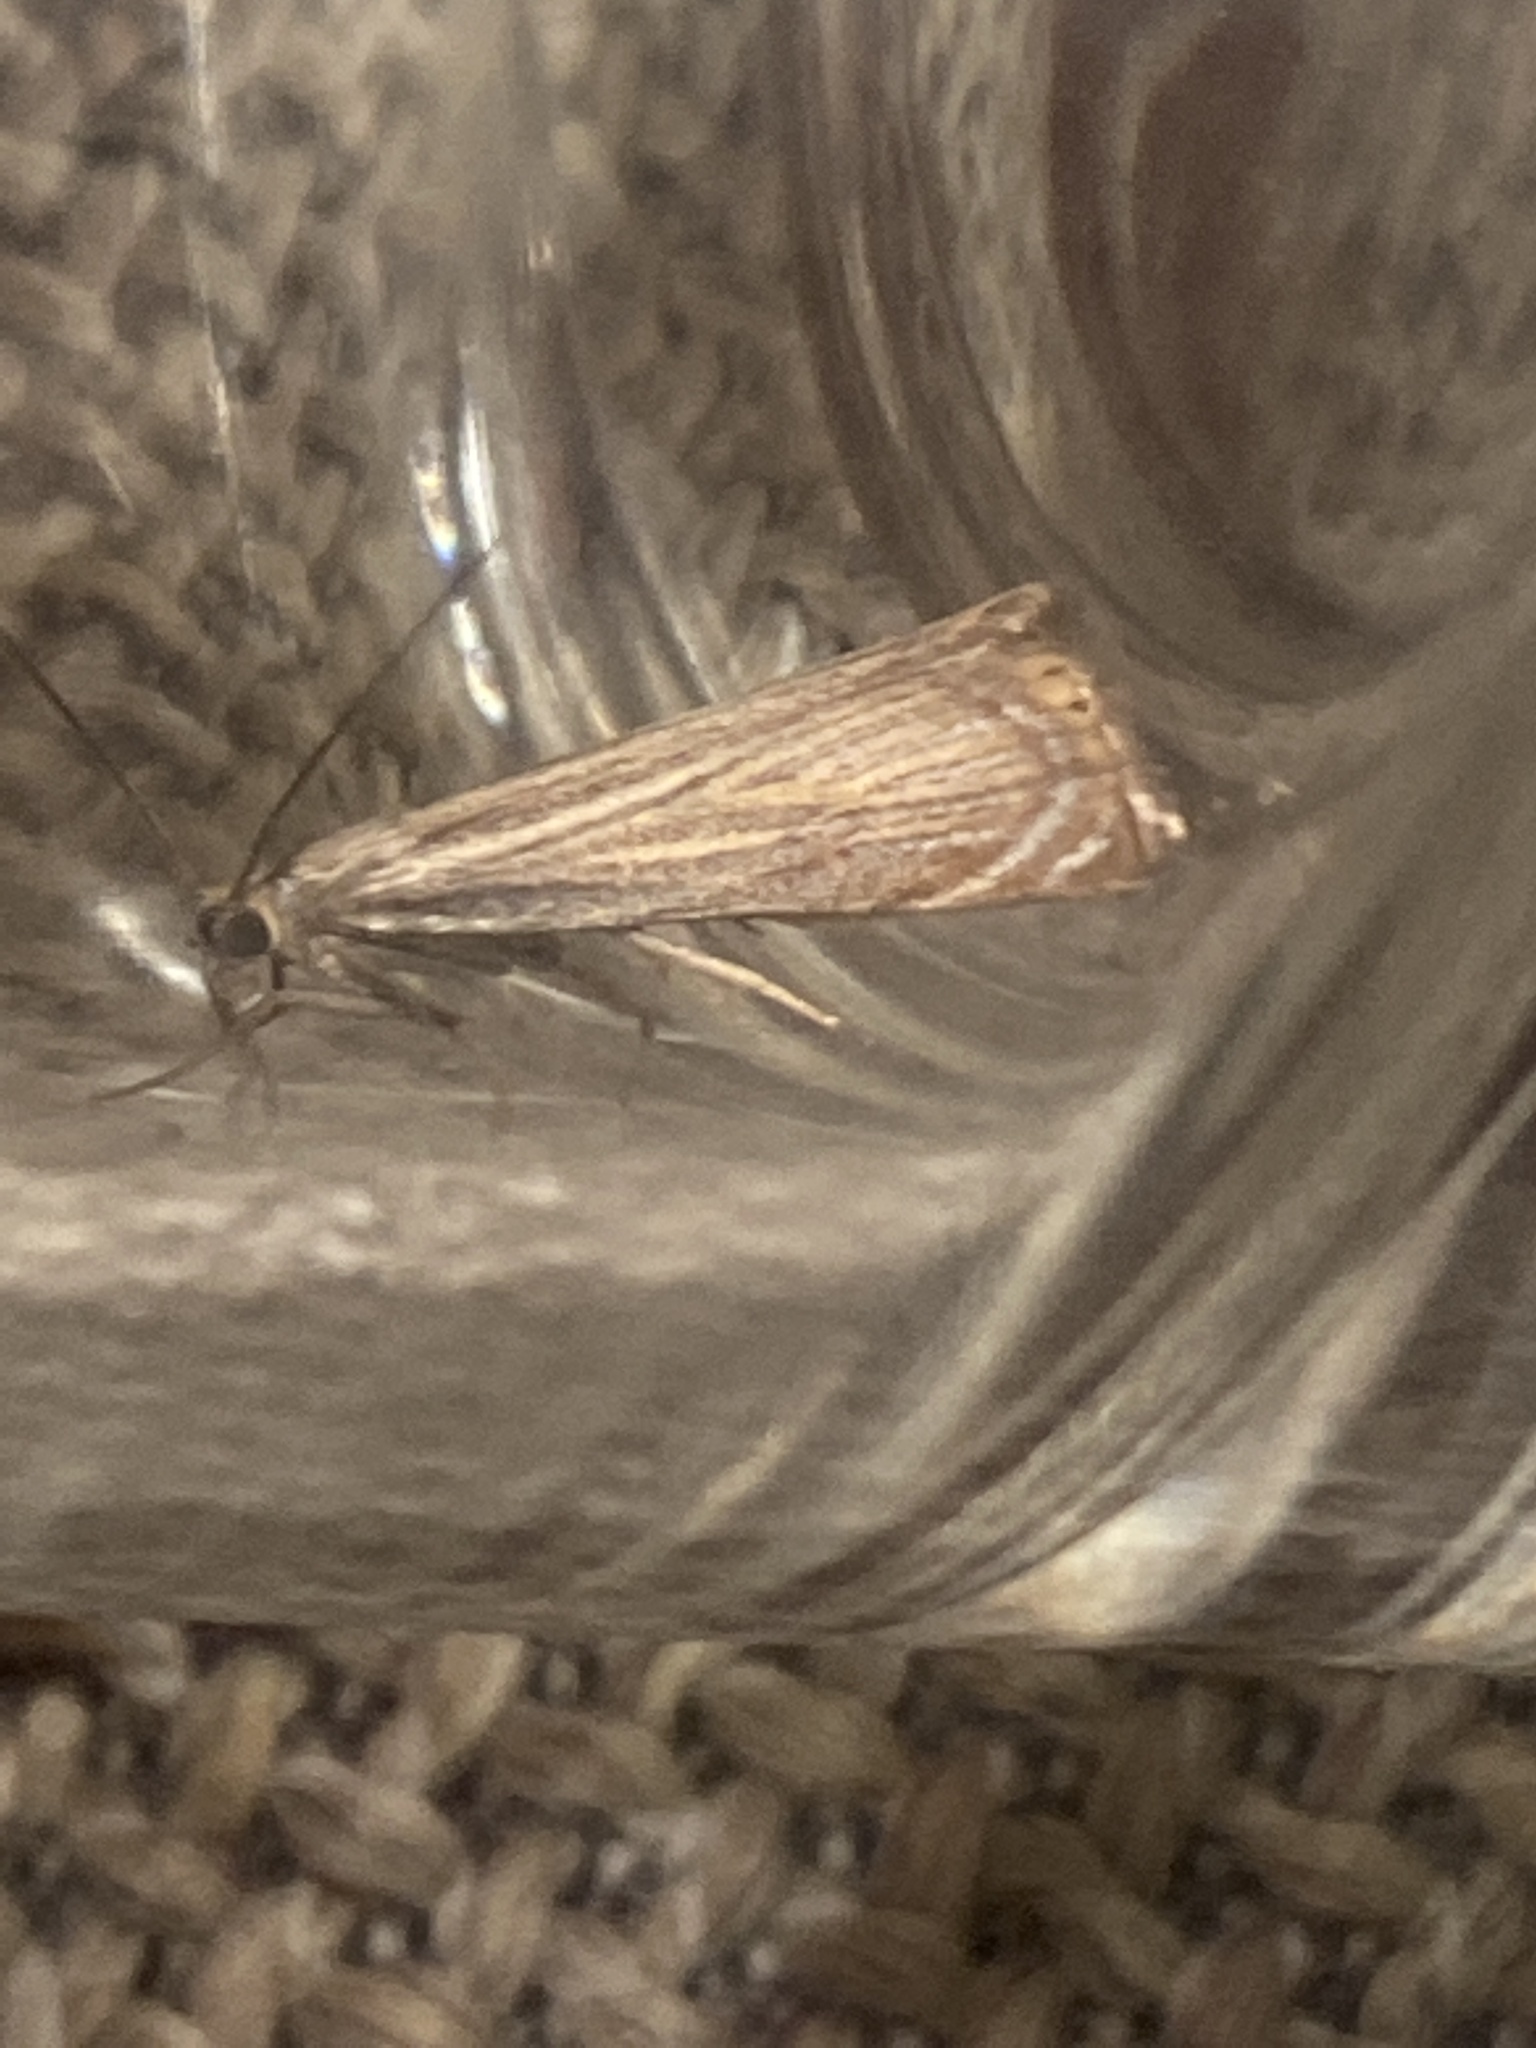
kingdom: Animalia
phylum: Arthropoda
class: Insecta
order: Lepidoptera
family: Crambidae
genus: Chrysoteuchia
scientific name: Chrysoteuchia culmella
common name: Garden grass-veneer
